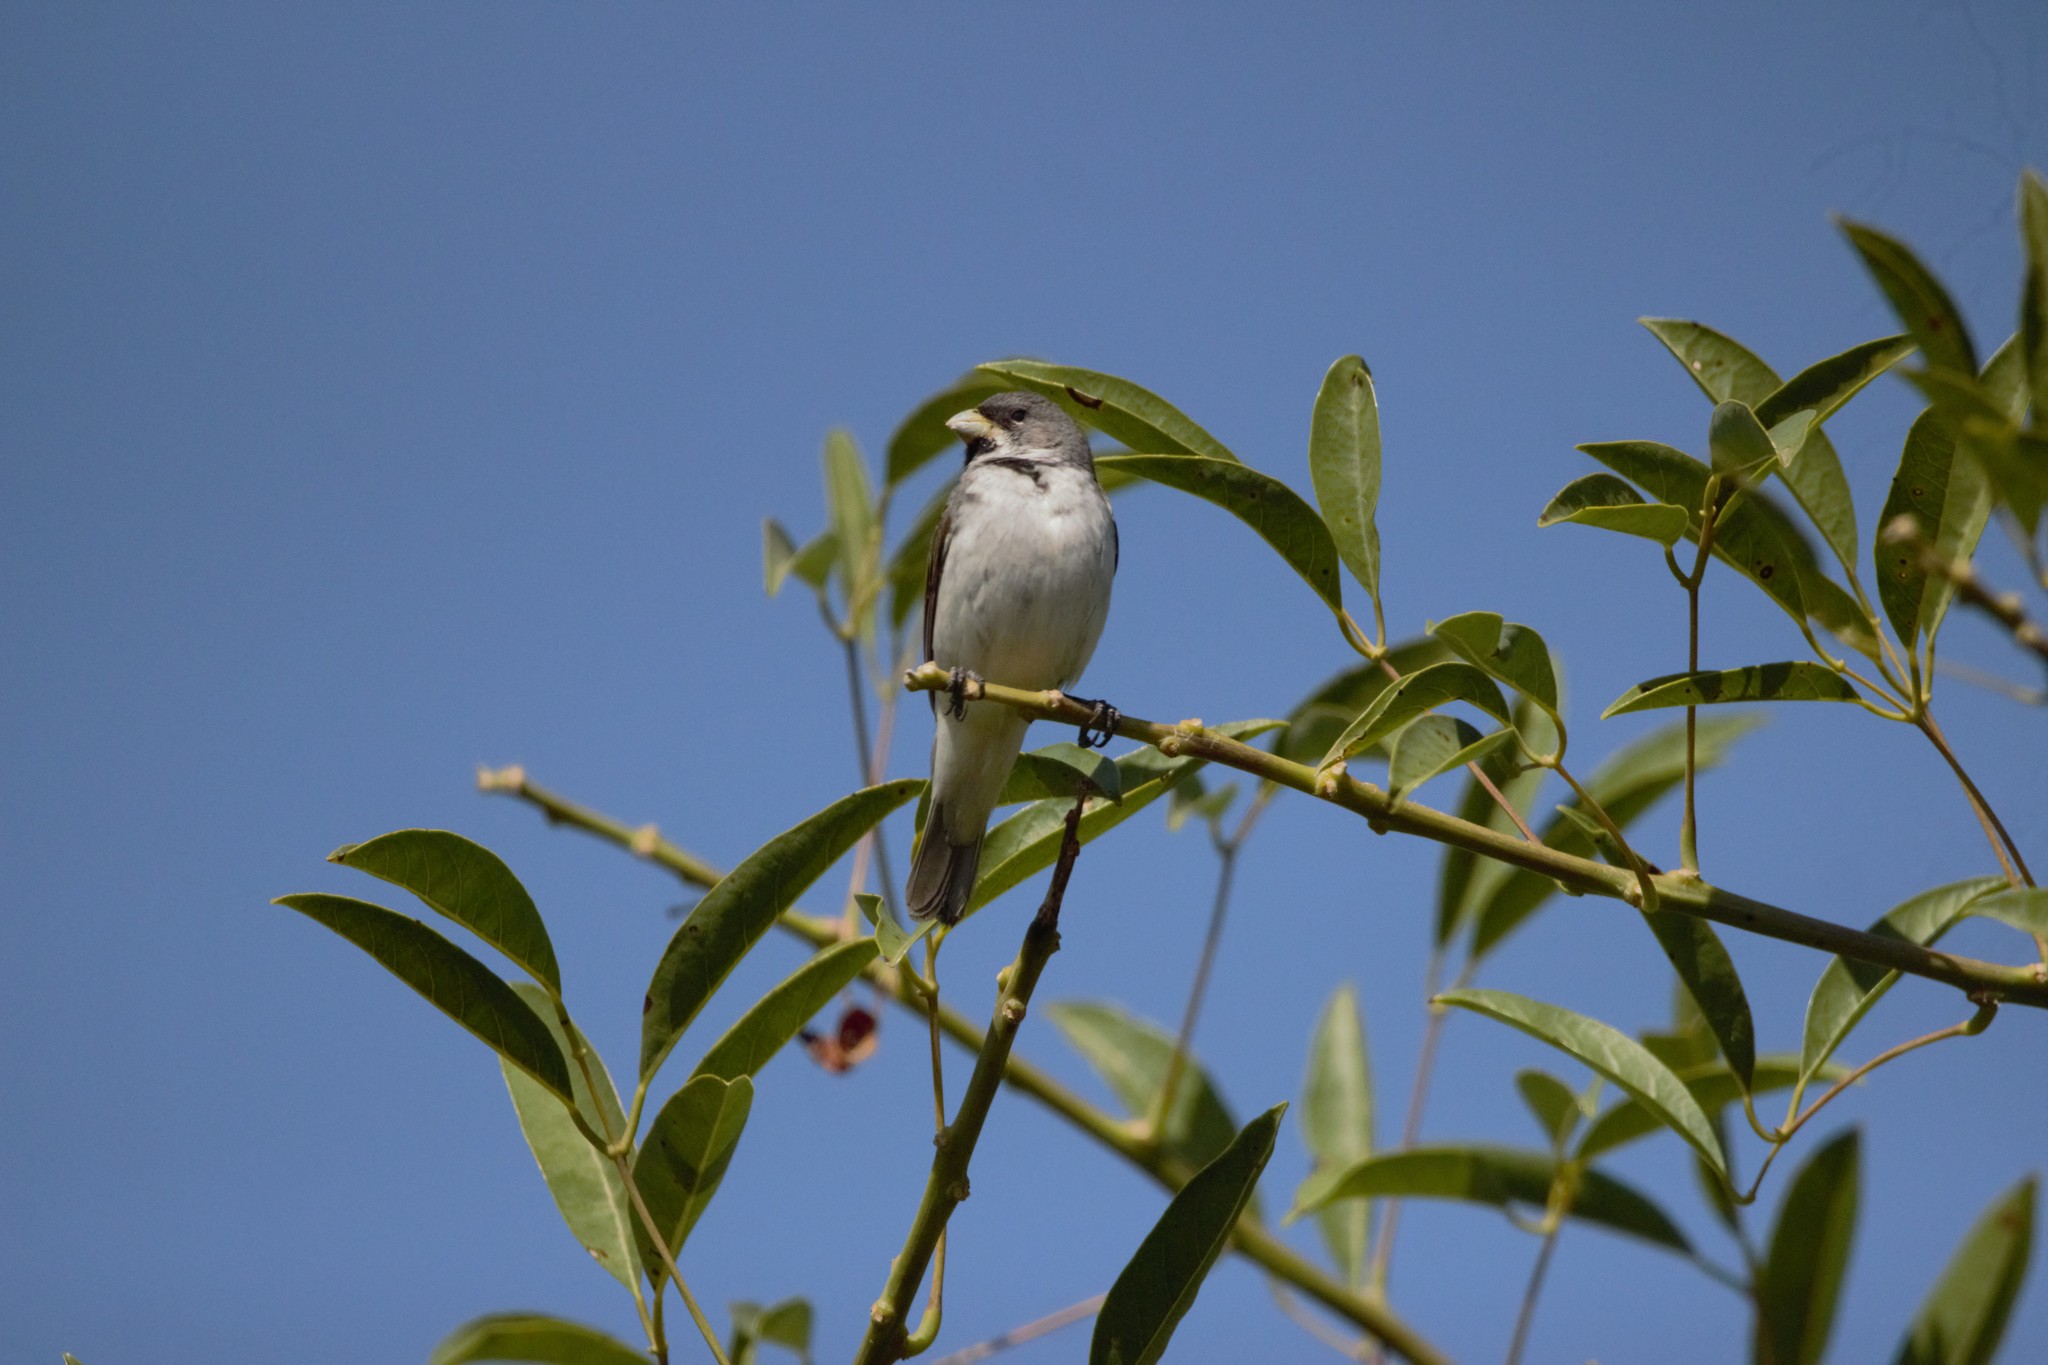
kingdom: Animalia
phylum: Chordata
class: Aves
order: Passeriformes
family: Thraupidae
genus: Sporophila
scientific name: Sporophila caerulescens
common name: Double-collared seedeater
